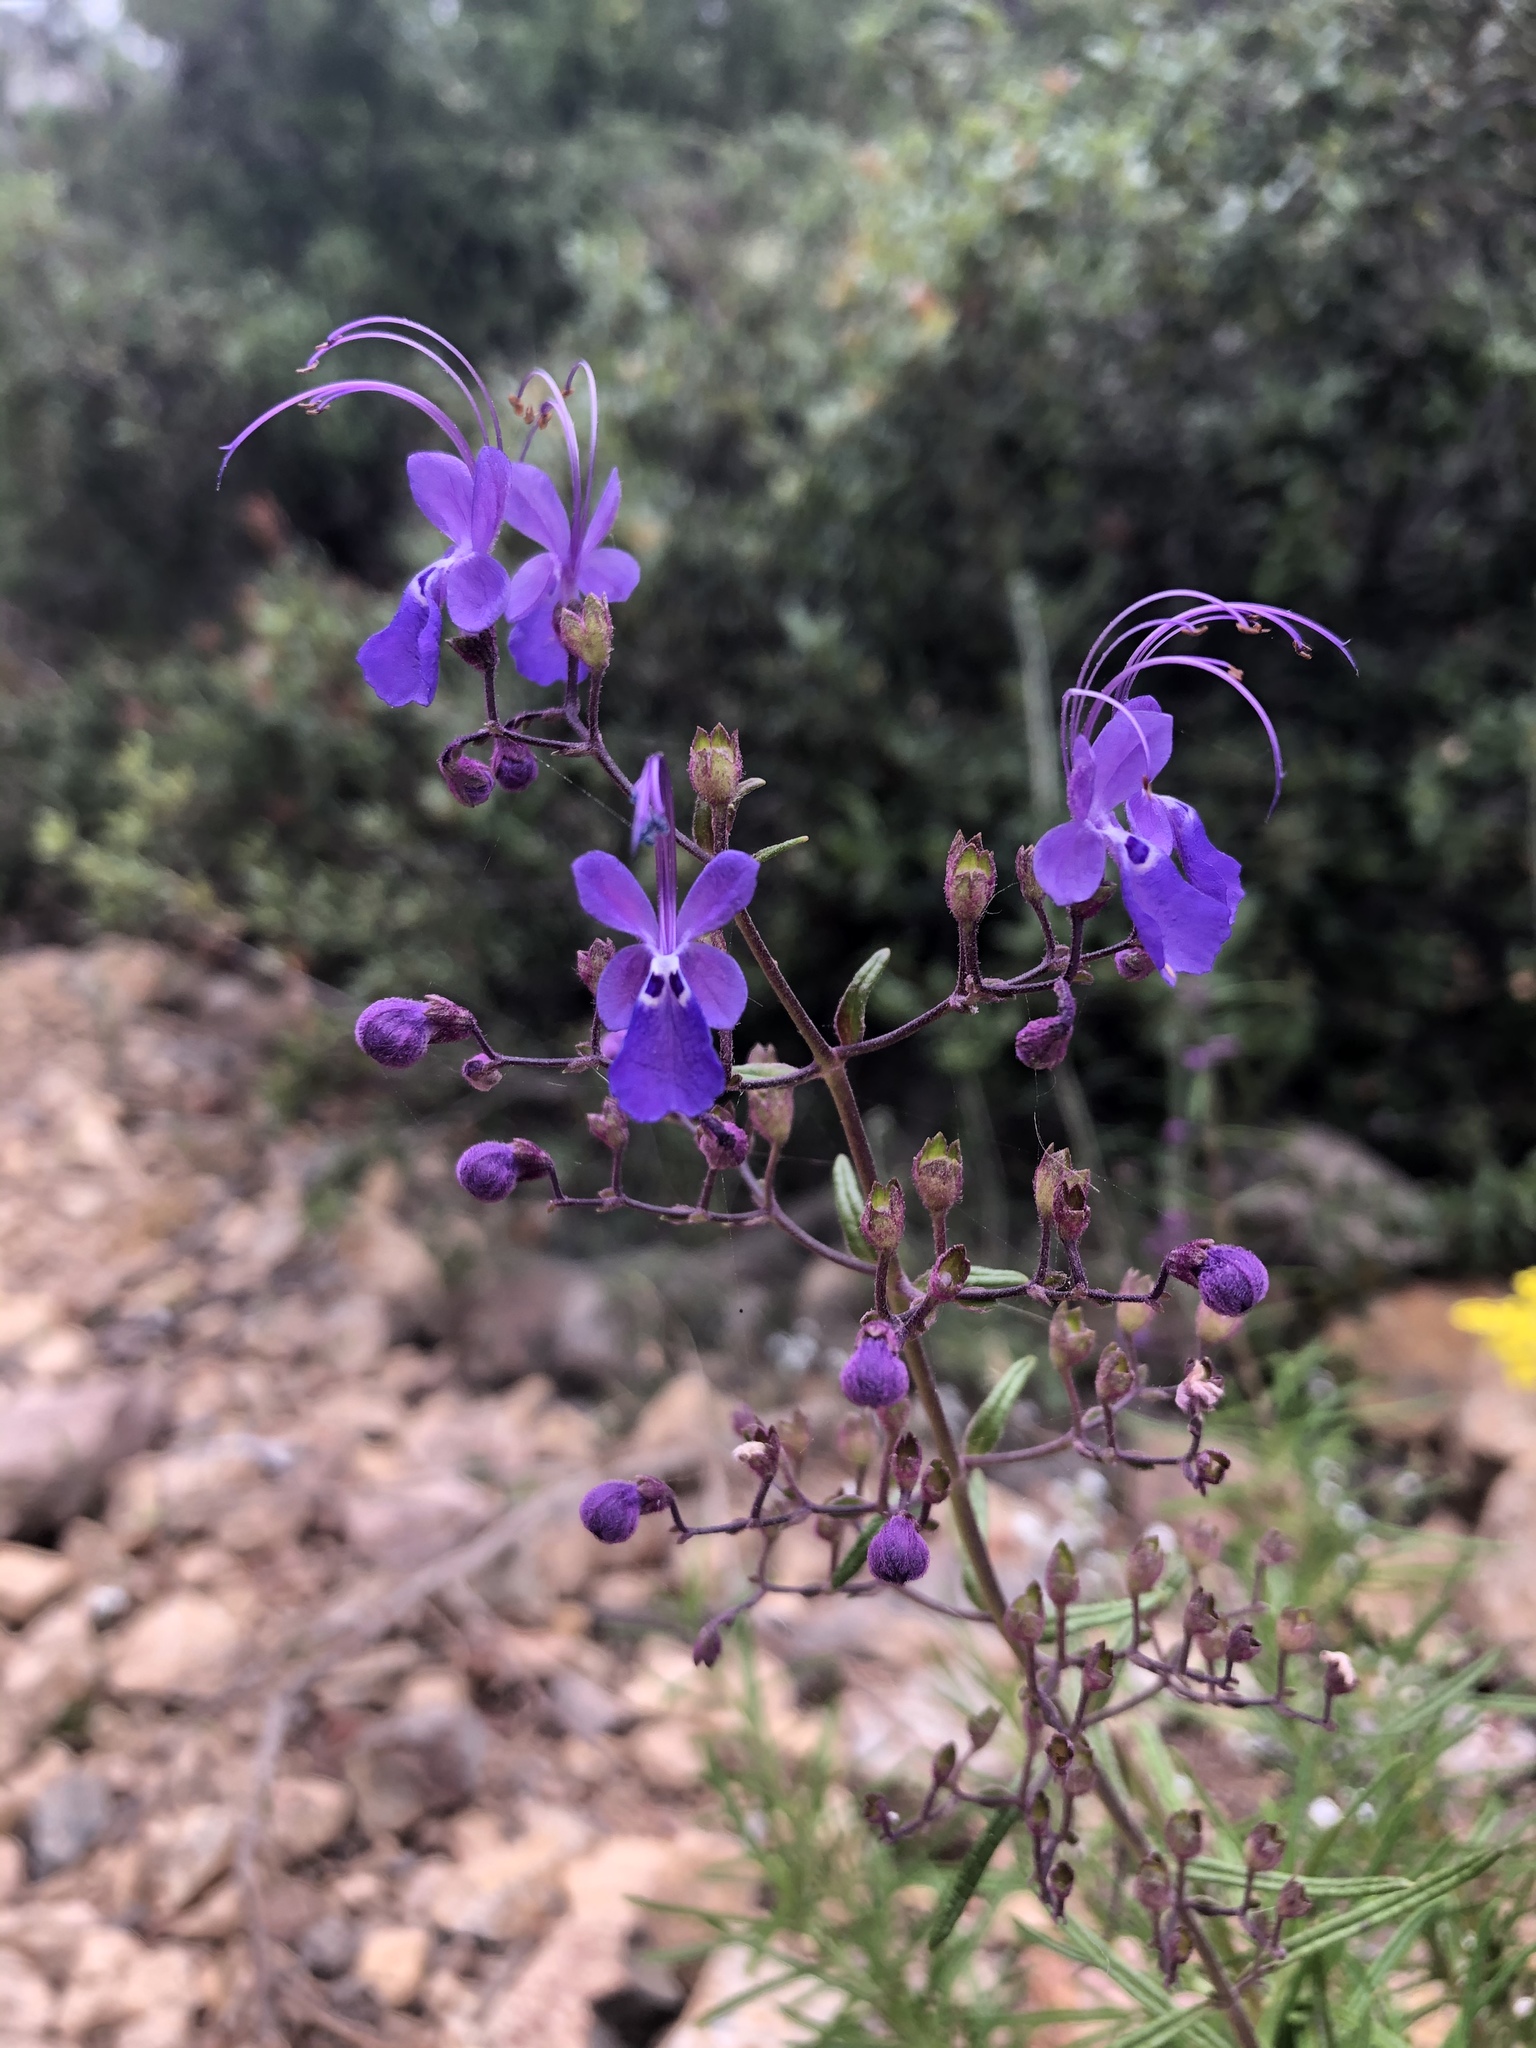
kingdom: Plantae
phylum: Tracheophyta
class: Magnoliopsida
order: Lamiales
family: Lamiaceae
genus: Trichostema
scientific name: Trichostema parishii
